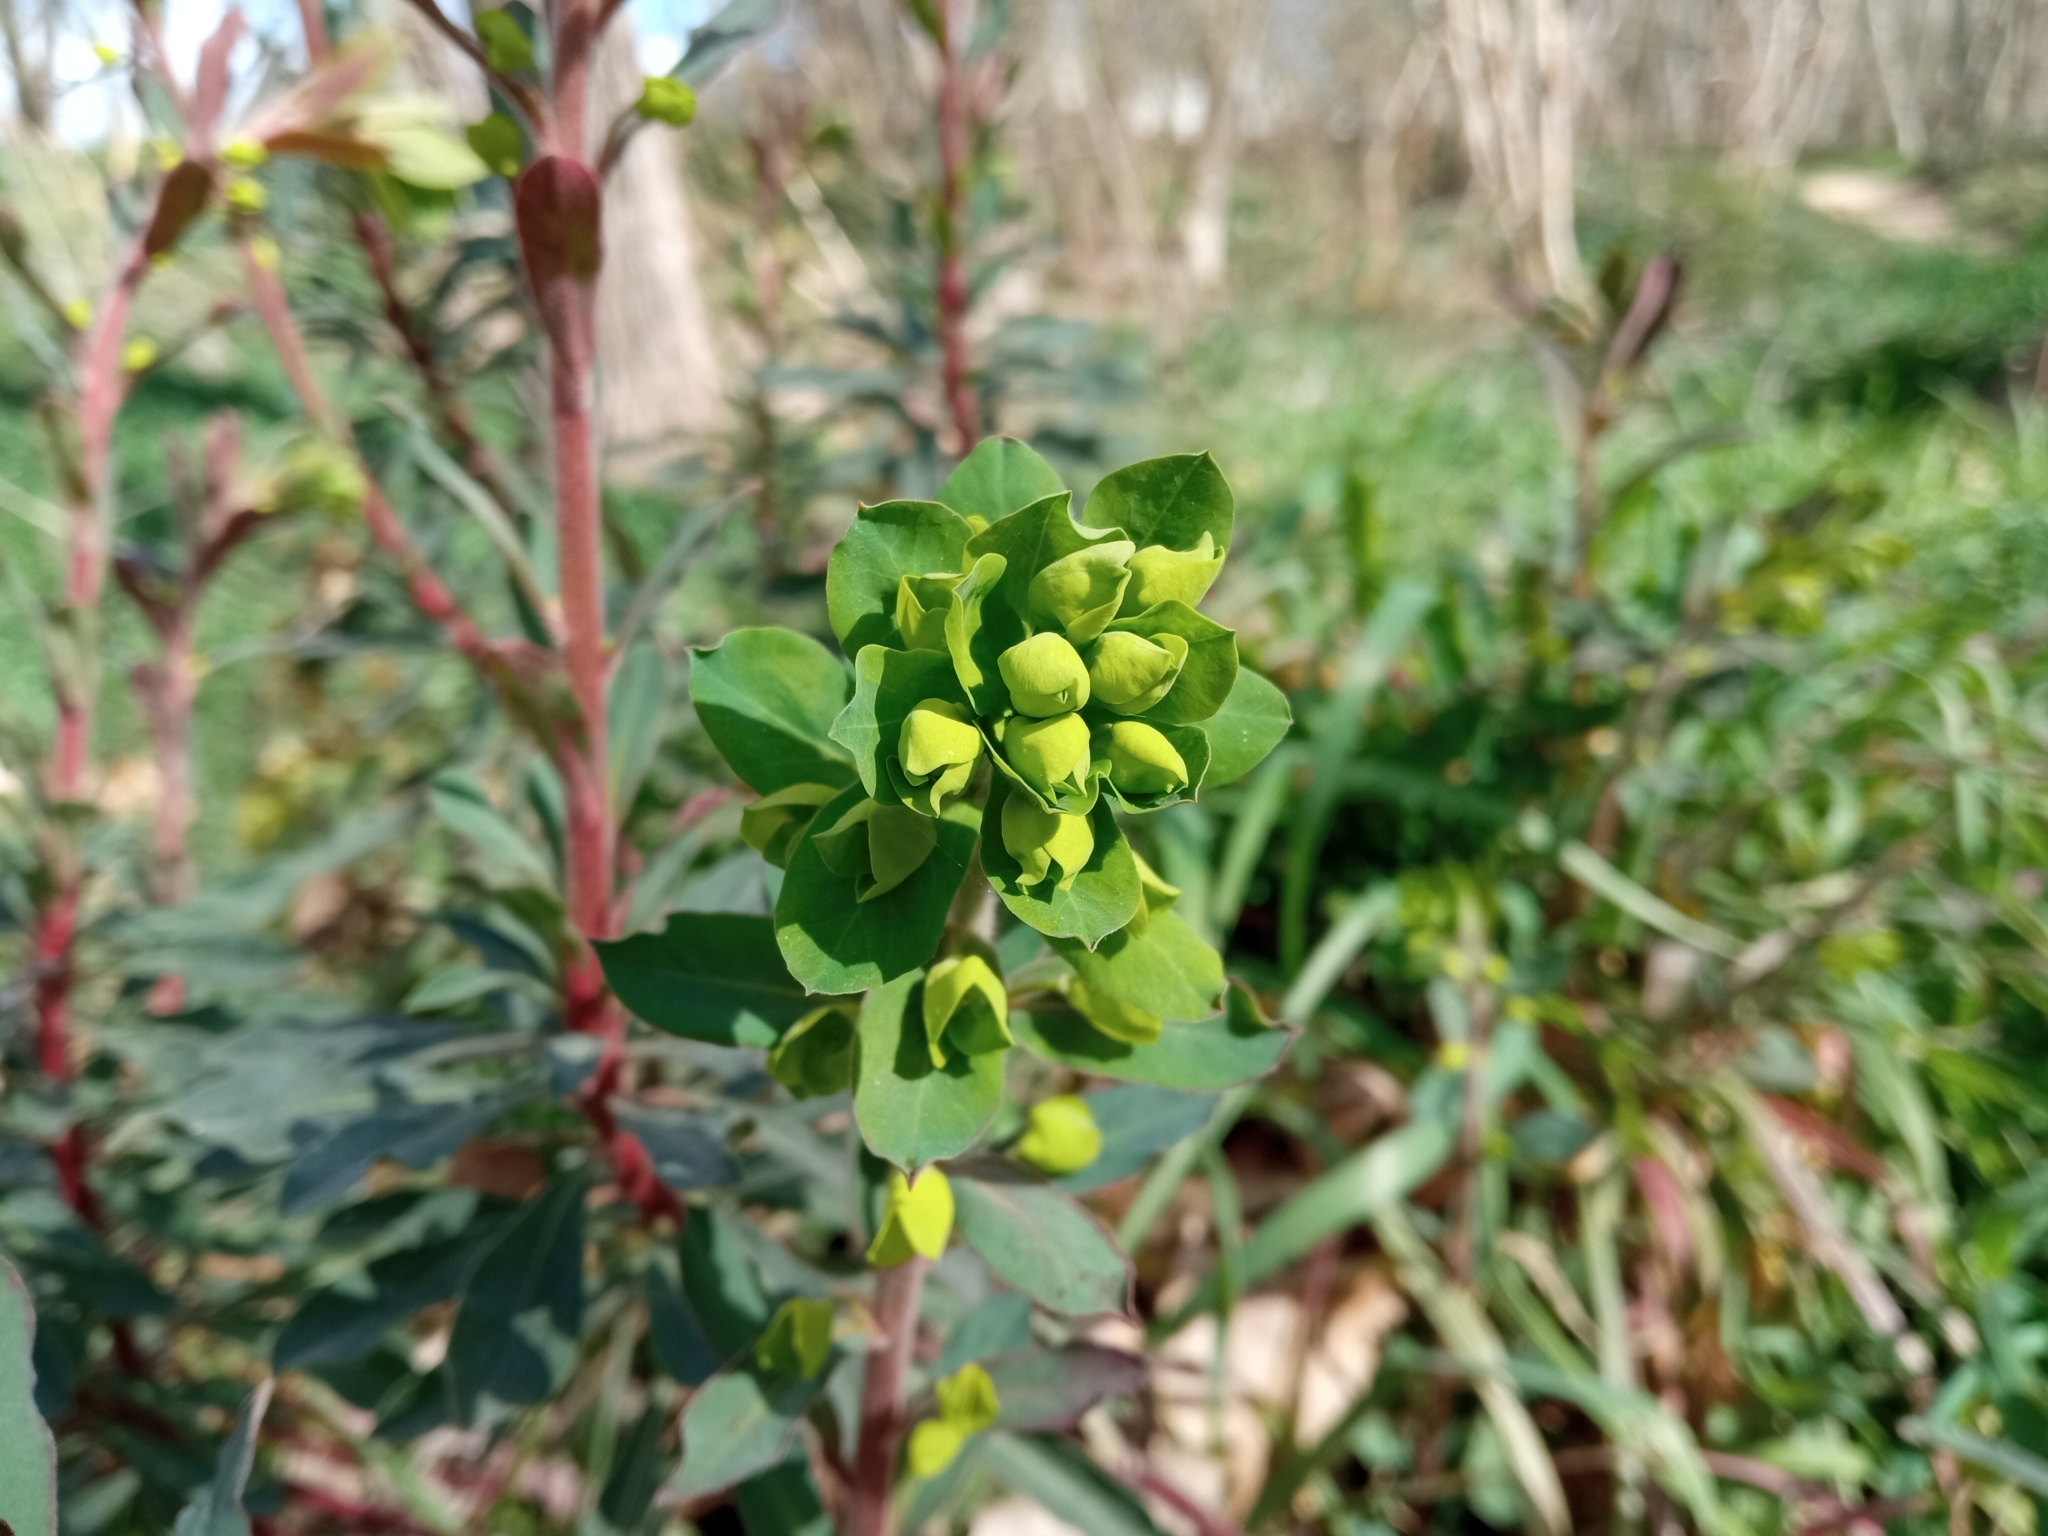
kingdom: Plantae
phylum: Tracheophyta
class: Magnoliopsida
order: Malpighiales
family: Euphorbiaceae
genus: Euphorbia
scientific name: Euphorbia amygdaloides
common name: Wood spurge
